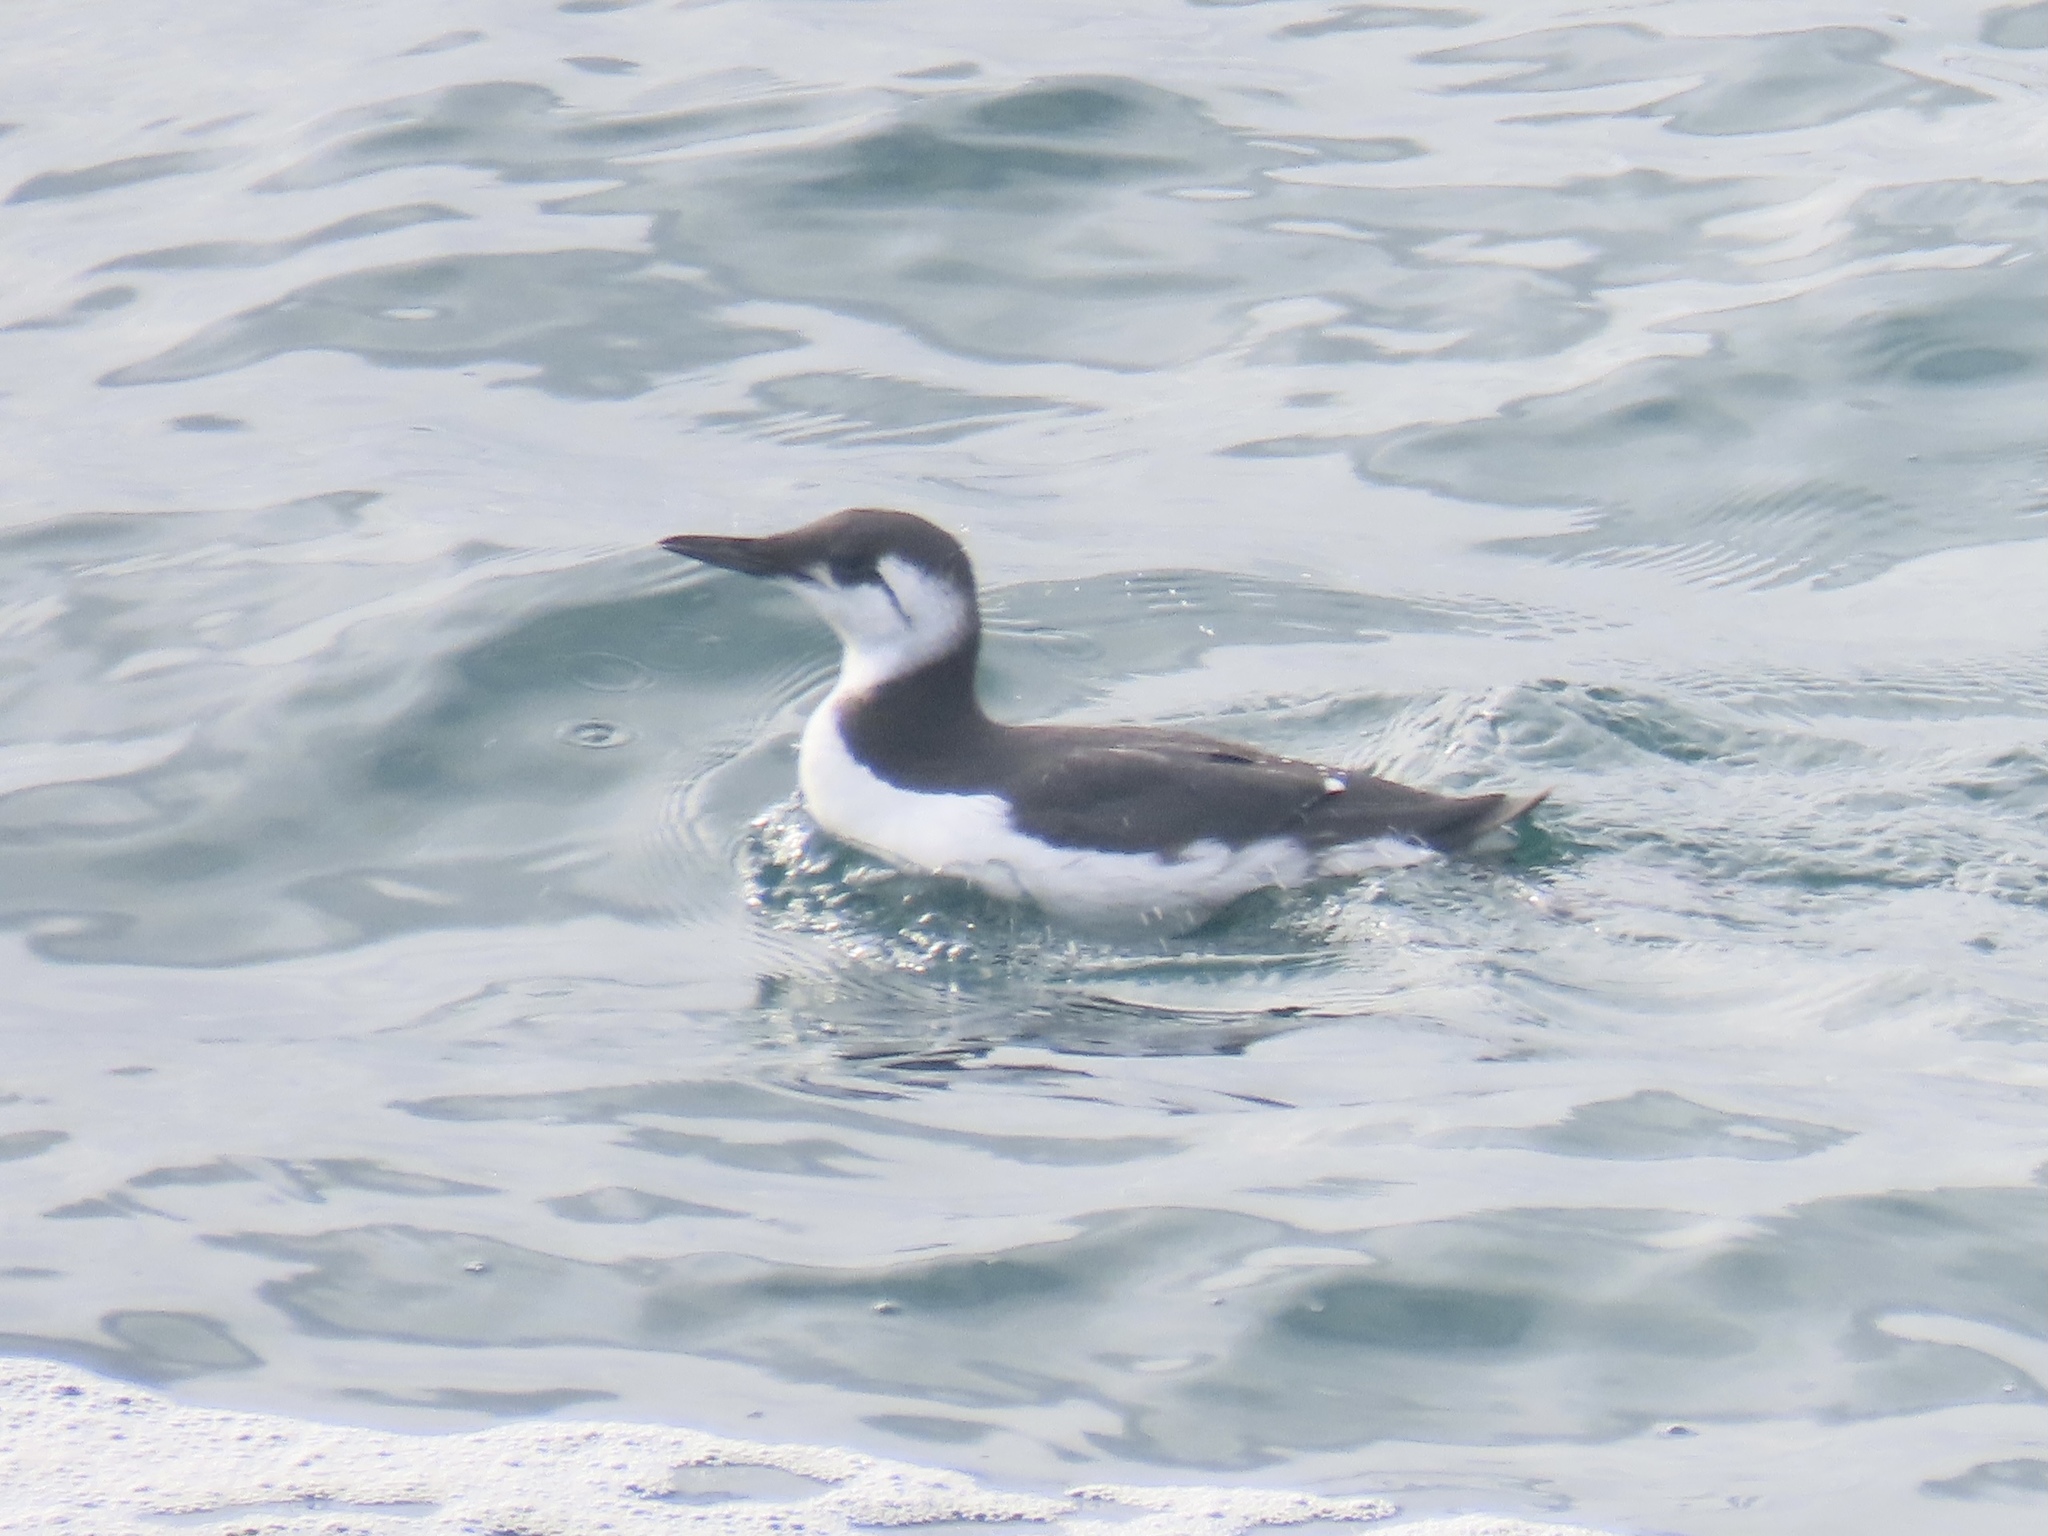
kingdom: Animalia
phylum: Chordata
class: Aves
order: Charadriiformes
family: Alcidae
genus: Uria
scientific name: Uria aalge
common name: Common murre
